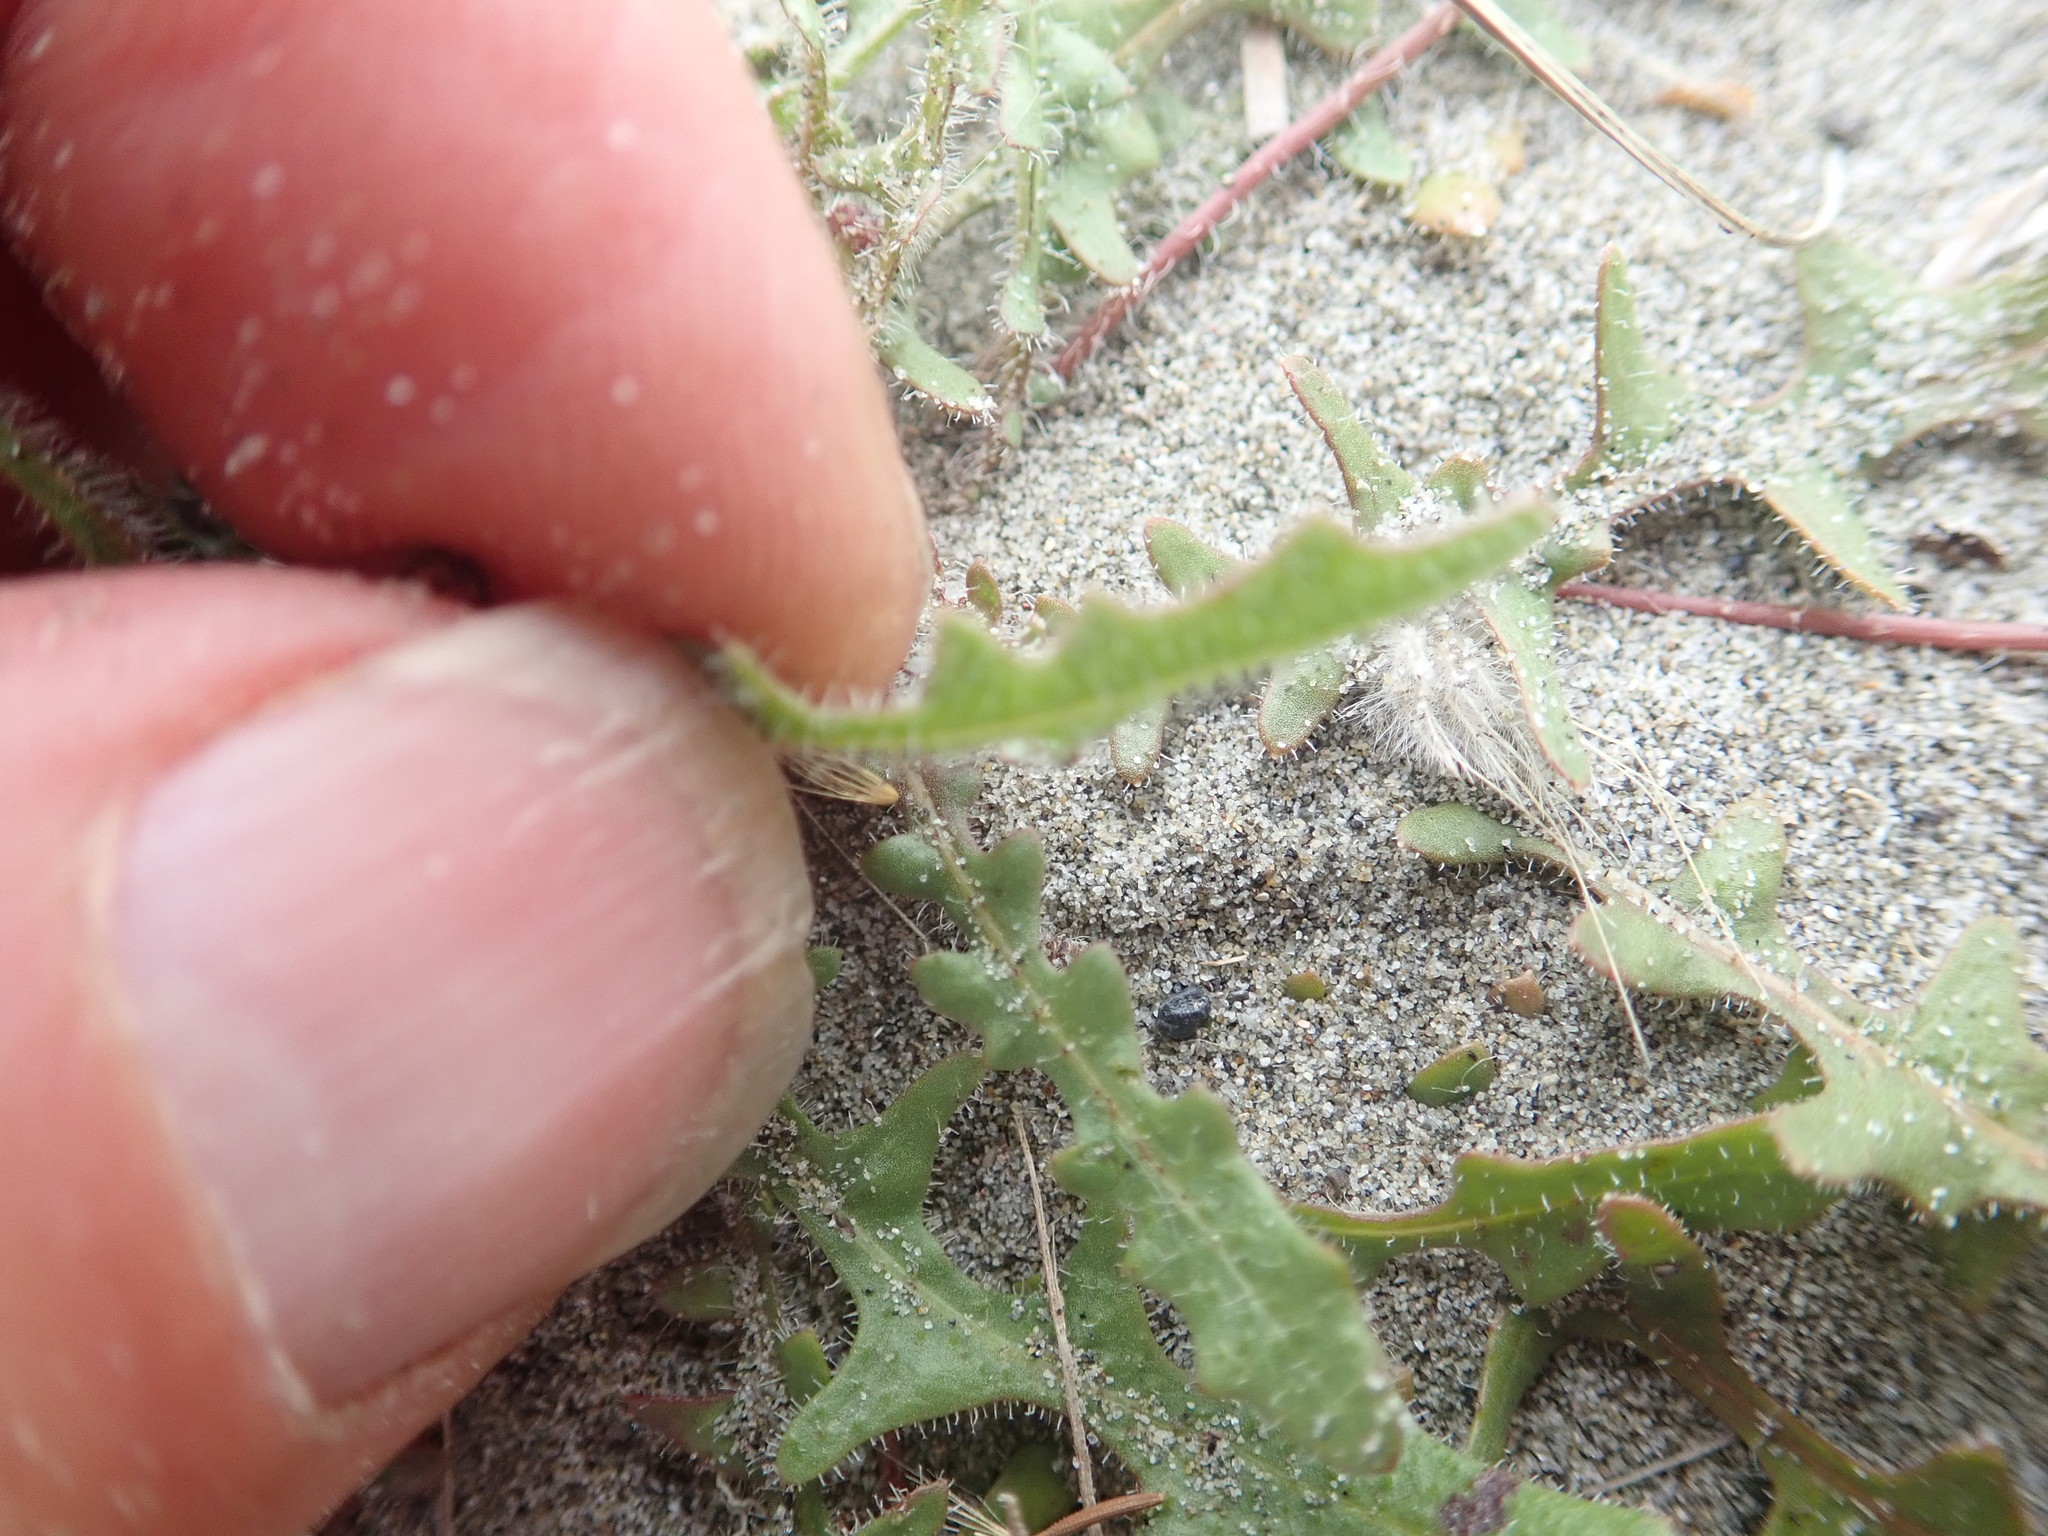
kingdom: Plantae
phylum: Tracheophyta
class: Magnoliopsida
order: Asterales
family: Asteraceae
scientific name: Asteraceae
